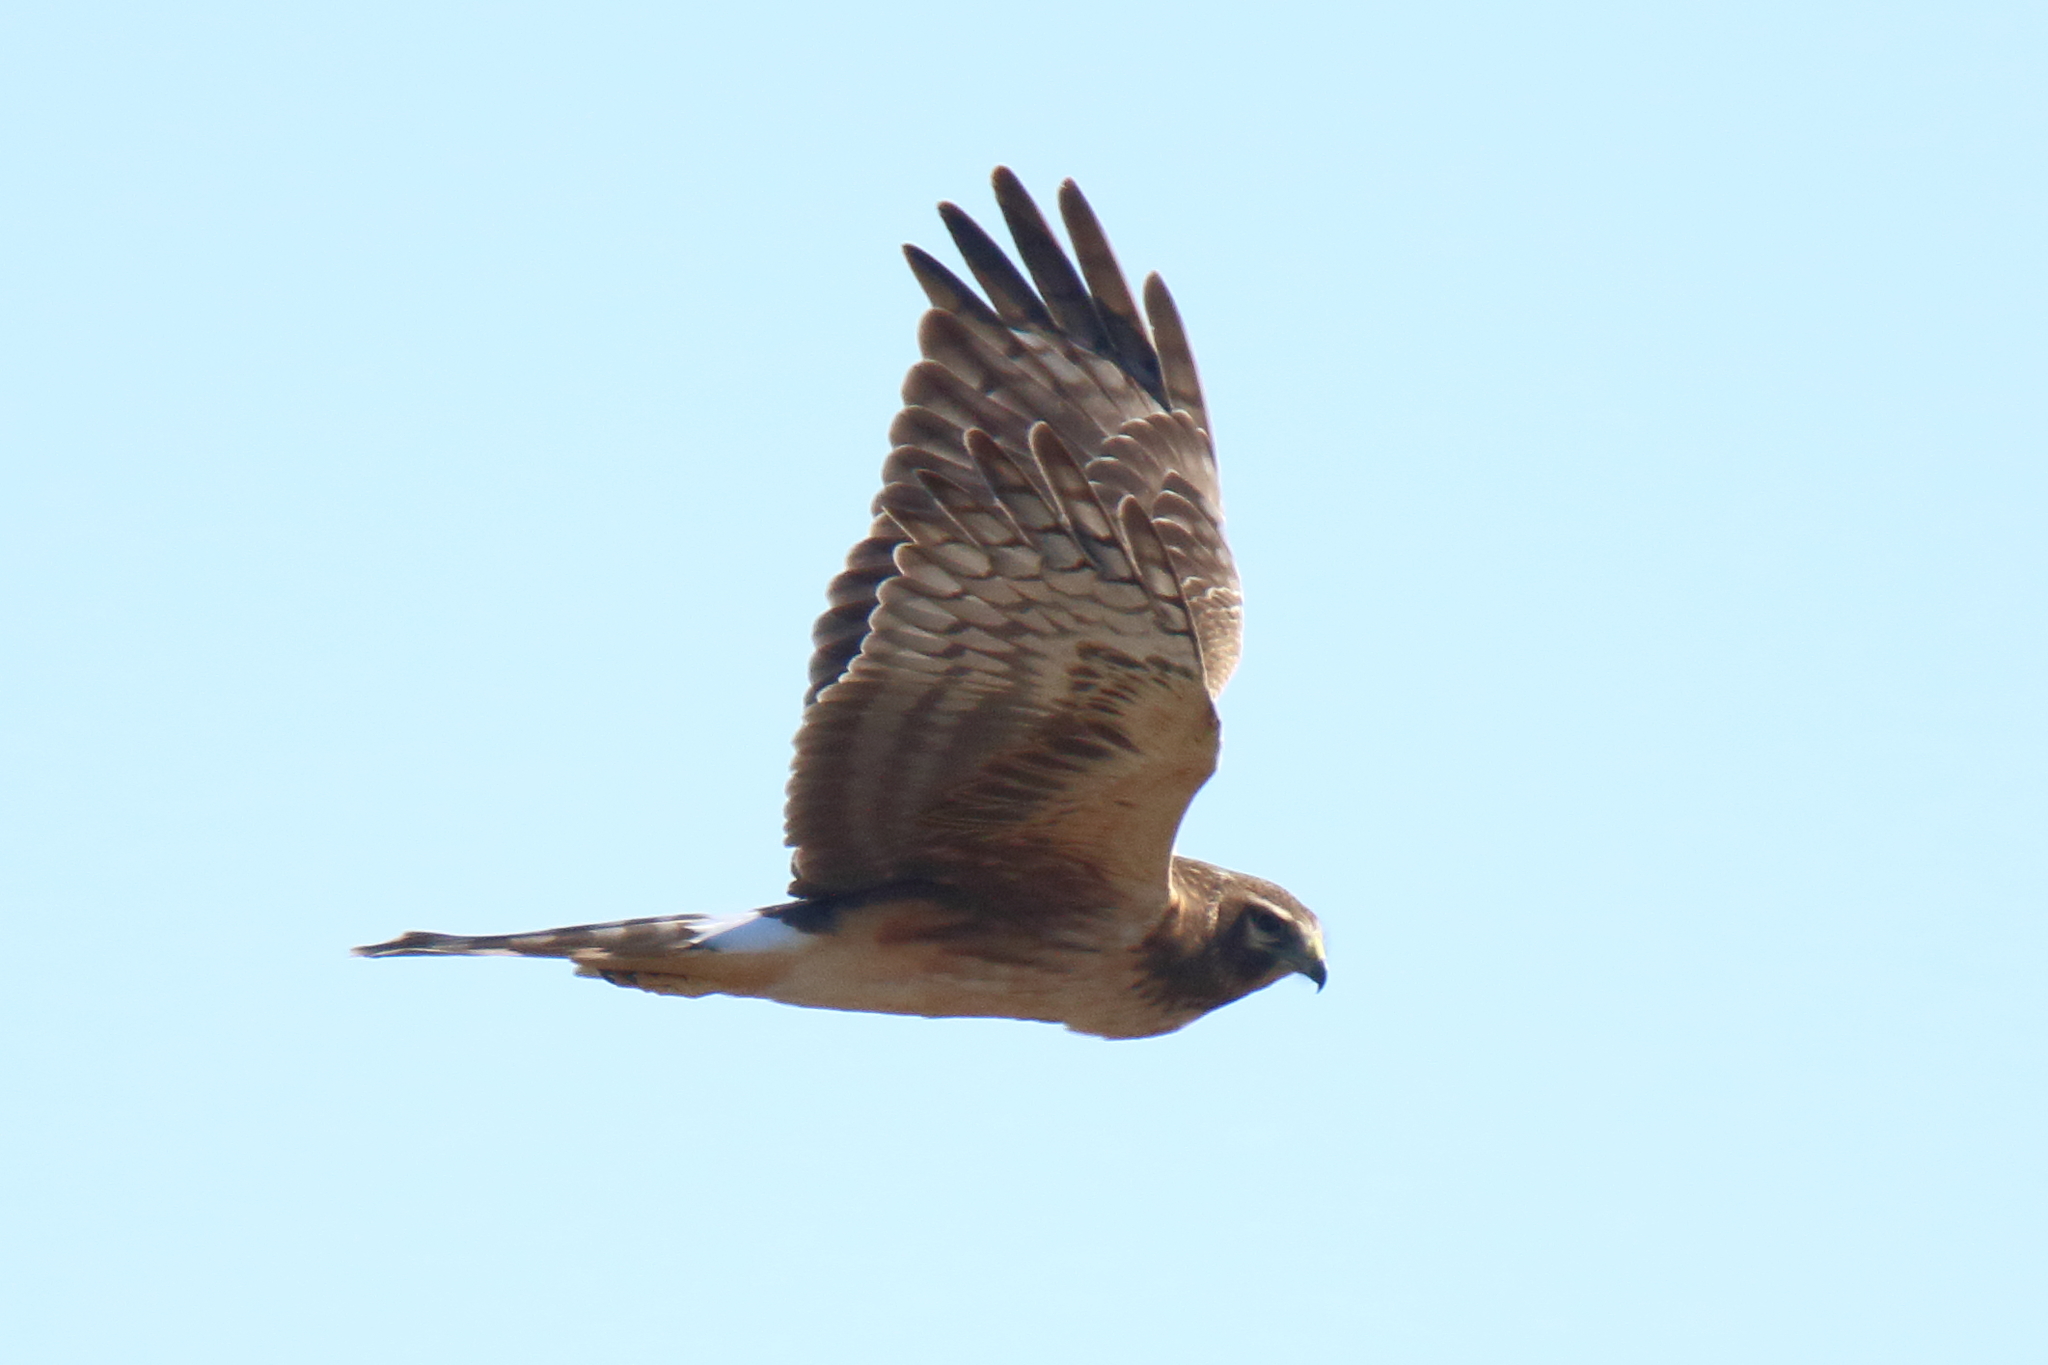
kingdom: Animalia
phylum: Chordata
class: Aves
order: Accipitriformes
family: Accipitridae
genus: Circus
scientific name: Circus cyaneus
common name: Hen harrier
